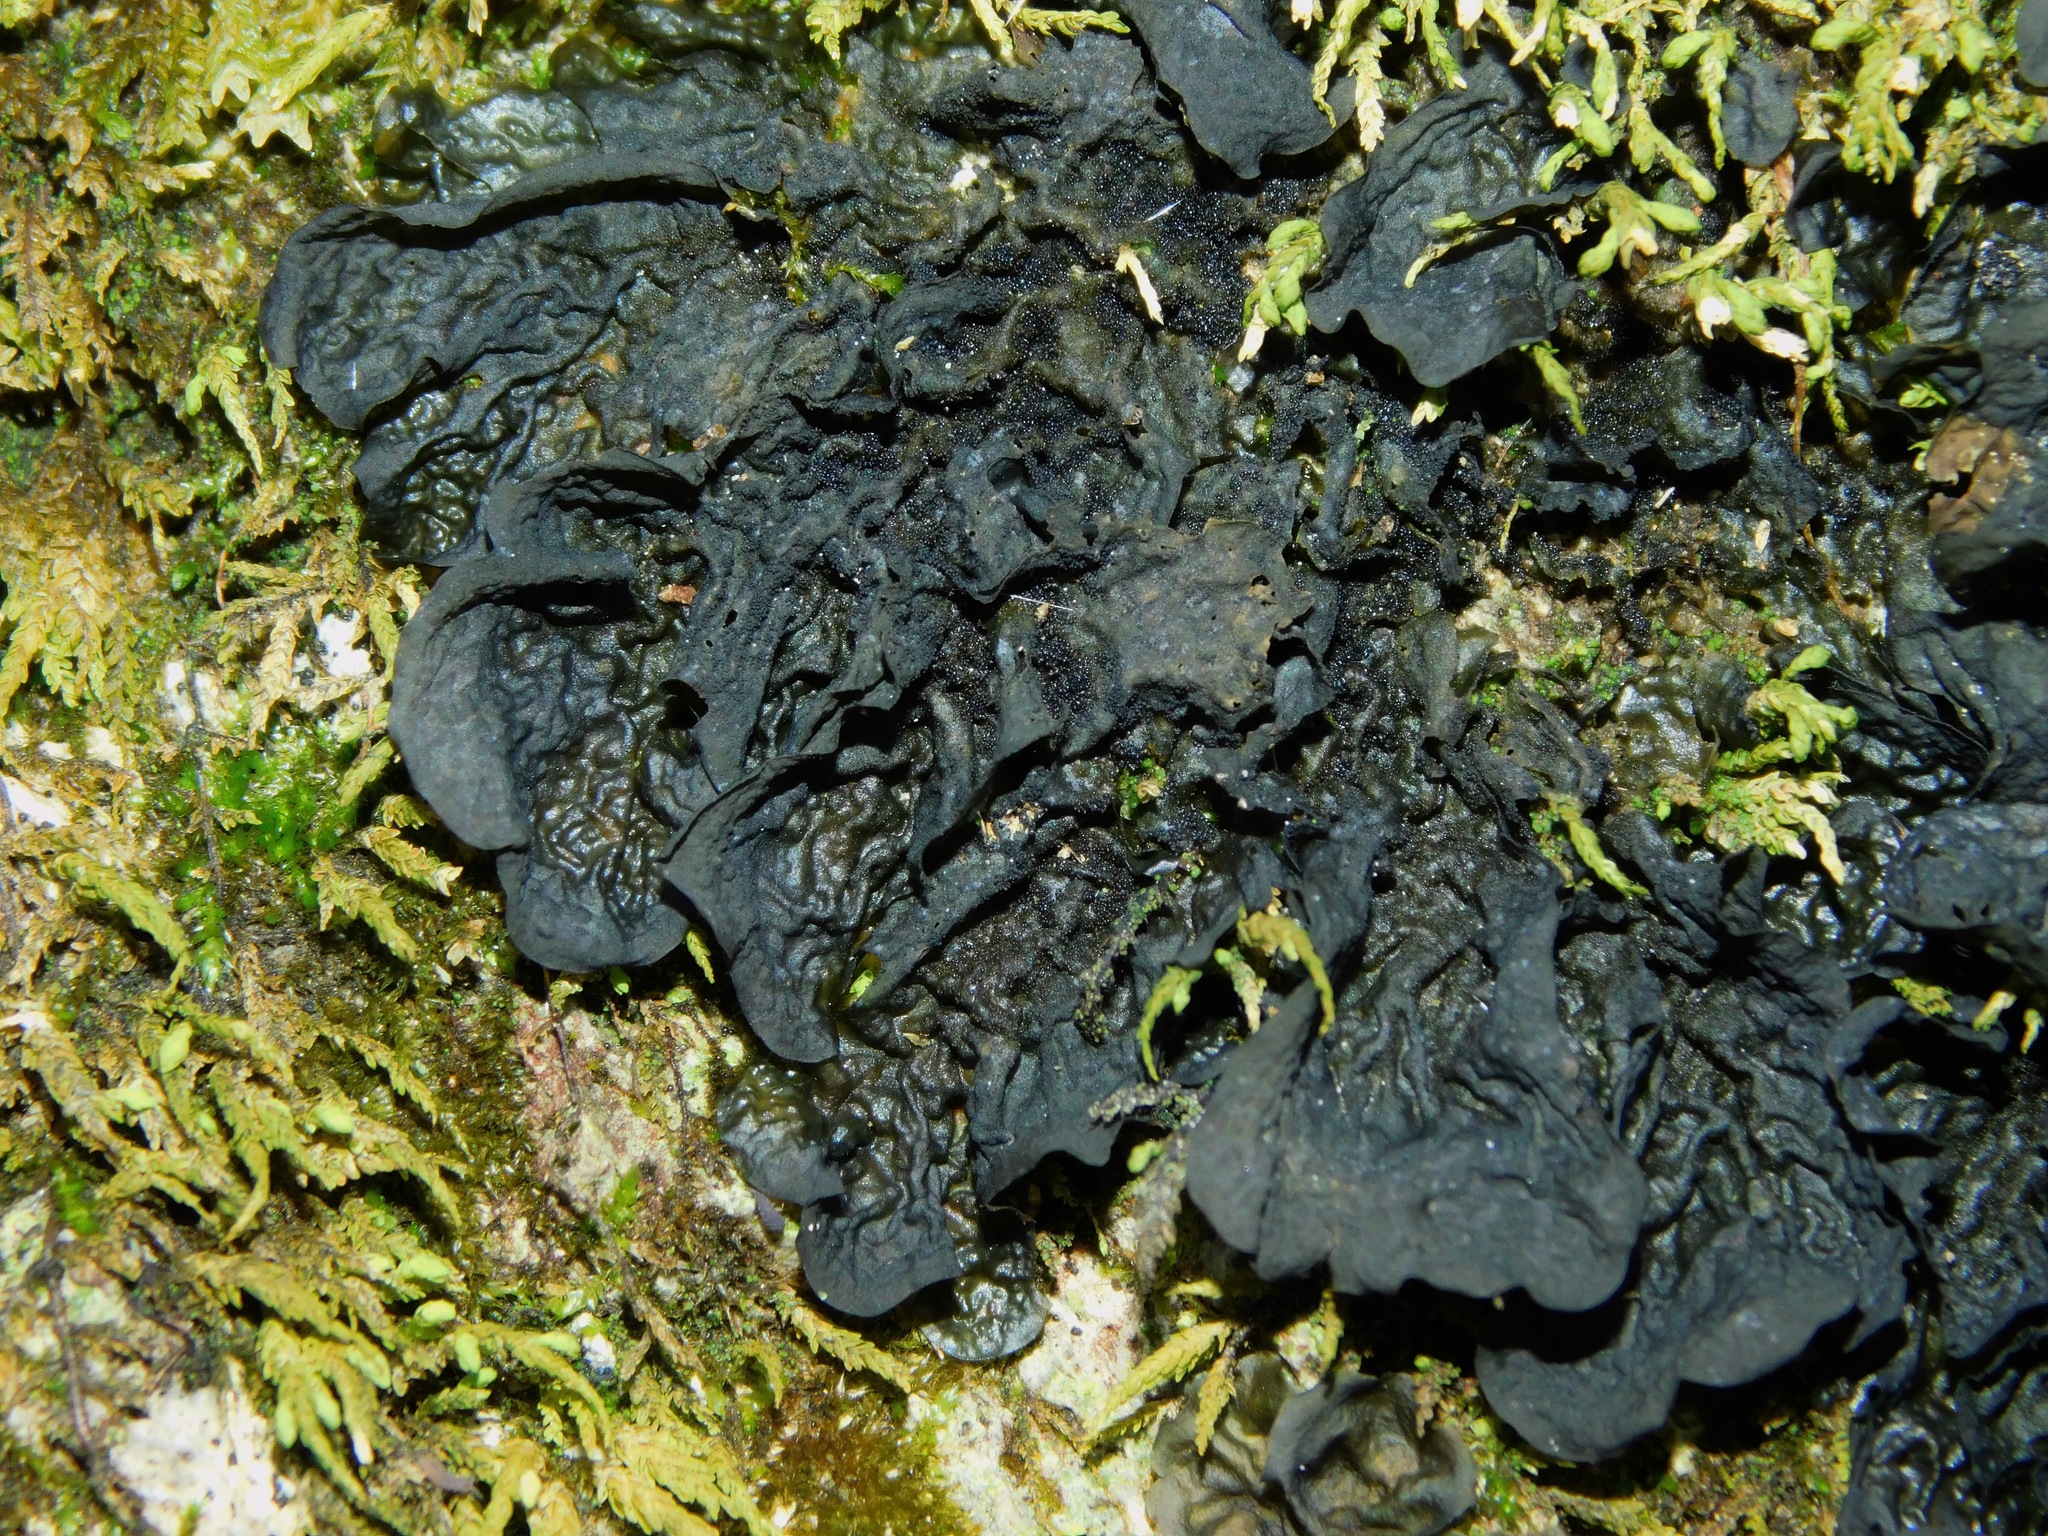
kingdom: Fungi
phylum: Ascomycota
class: Lecanoromycetes
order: Peltigerales
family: Collemataceae
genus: Collema
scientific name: Collema furfuraceum
